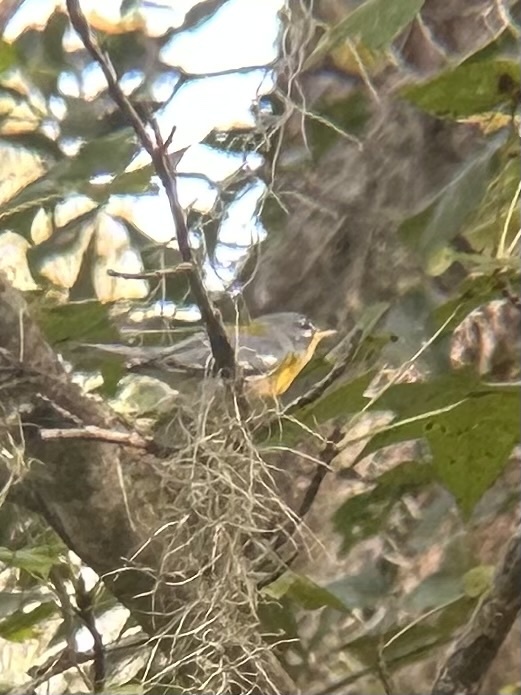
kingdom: Animalia
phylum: Chordata
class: Aves
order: Passeriformes
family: Parulidae
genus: Setophaga
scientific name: Setophaga americana
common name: Northern parula
